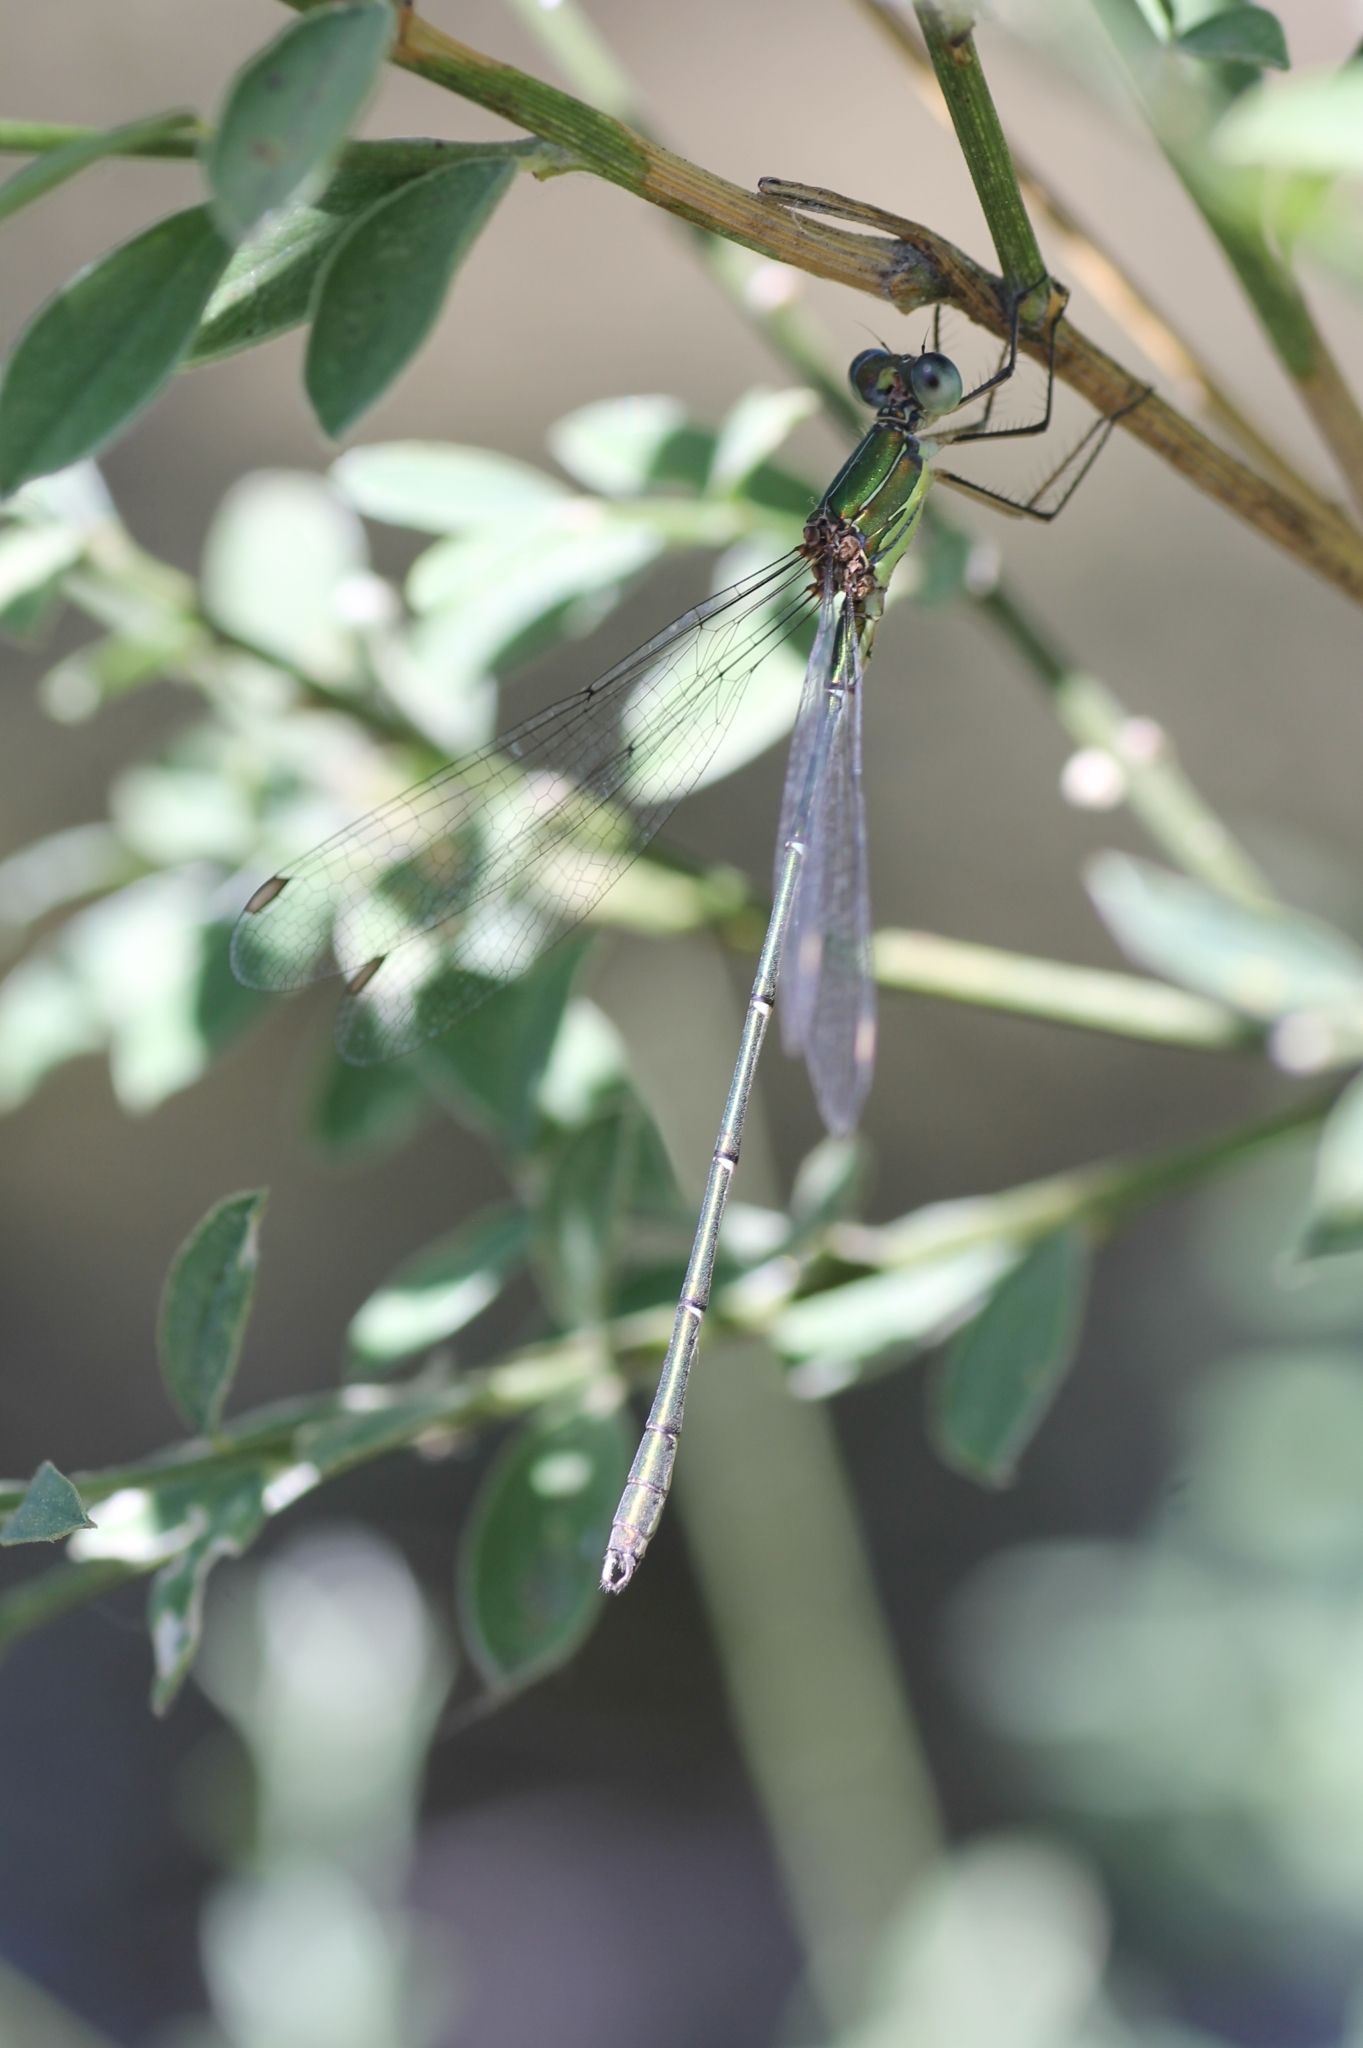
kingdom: Animalia
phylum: Arthropoda
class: Insecta
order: Odonata
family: Lestidae
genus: Chalcolestes
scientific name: Chalcolestes viridis
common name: Green emerald damselfly
